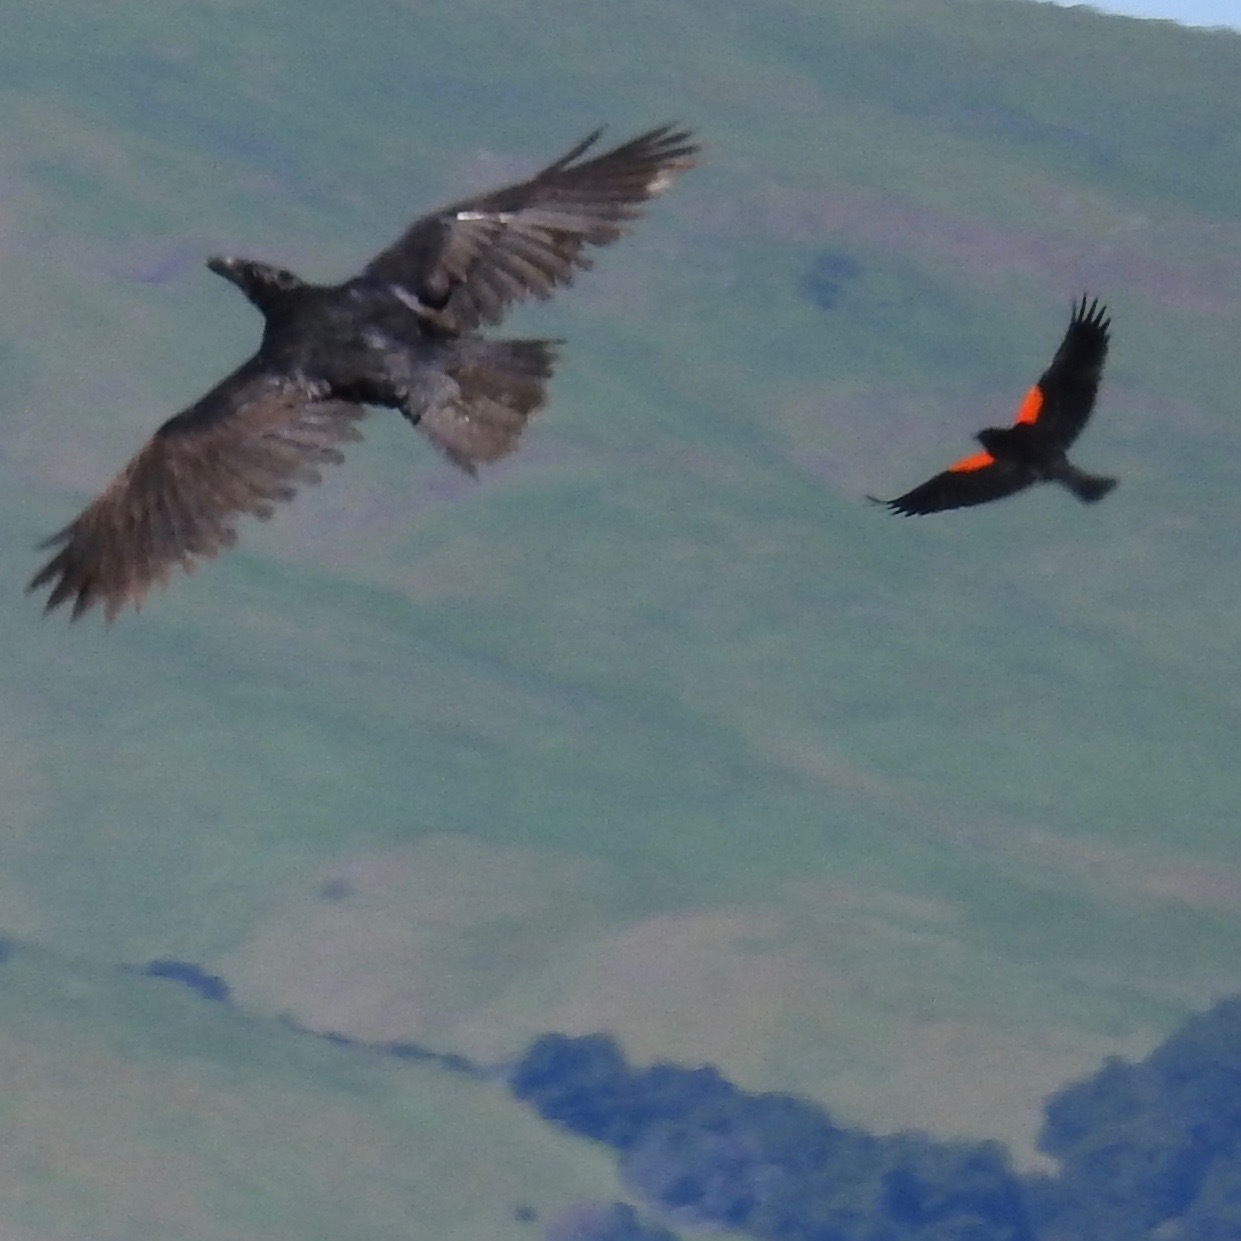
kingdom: Animalia
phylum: Chordata
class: Aves
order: Passeriformes
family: Icteridae
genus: Agelaius
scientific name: Agelaius phoeniceus
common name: Red-winged blackbird
